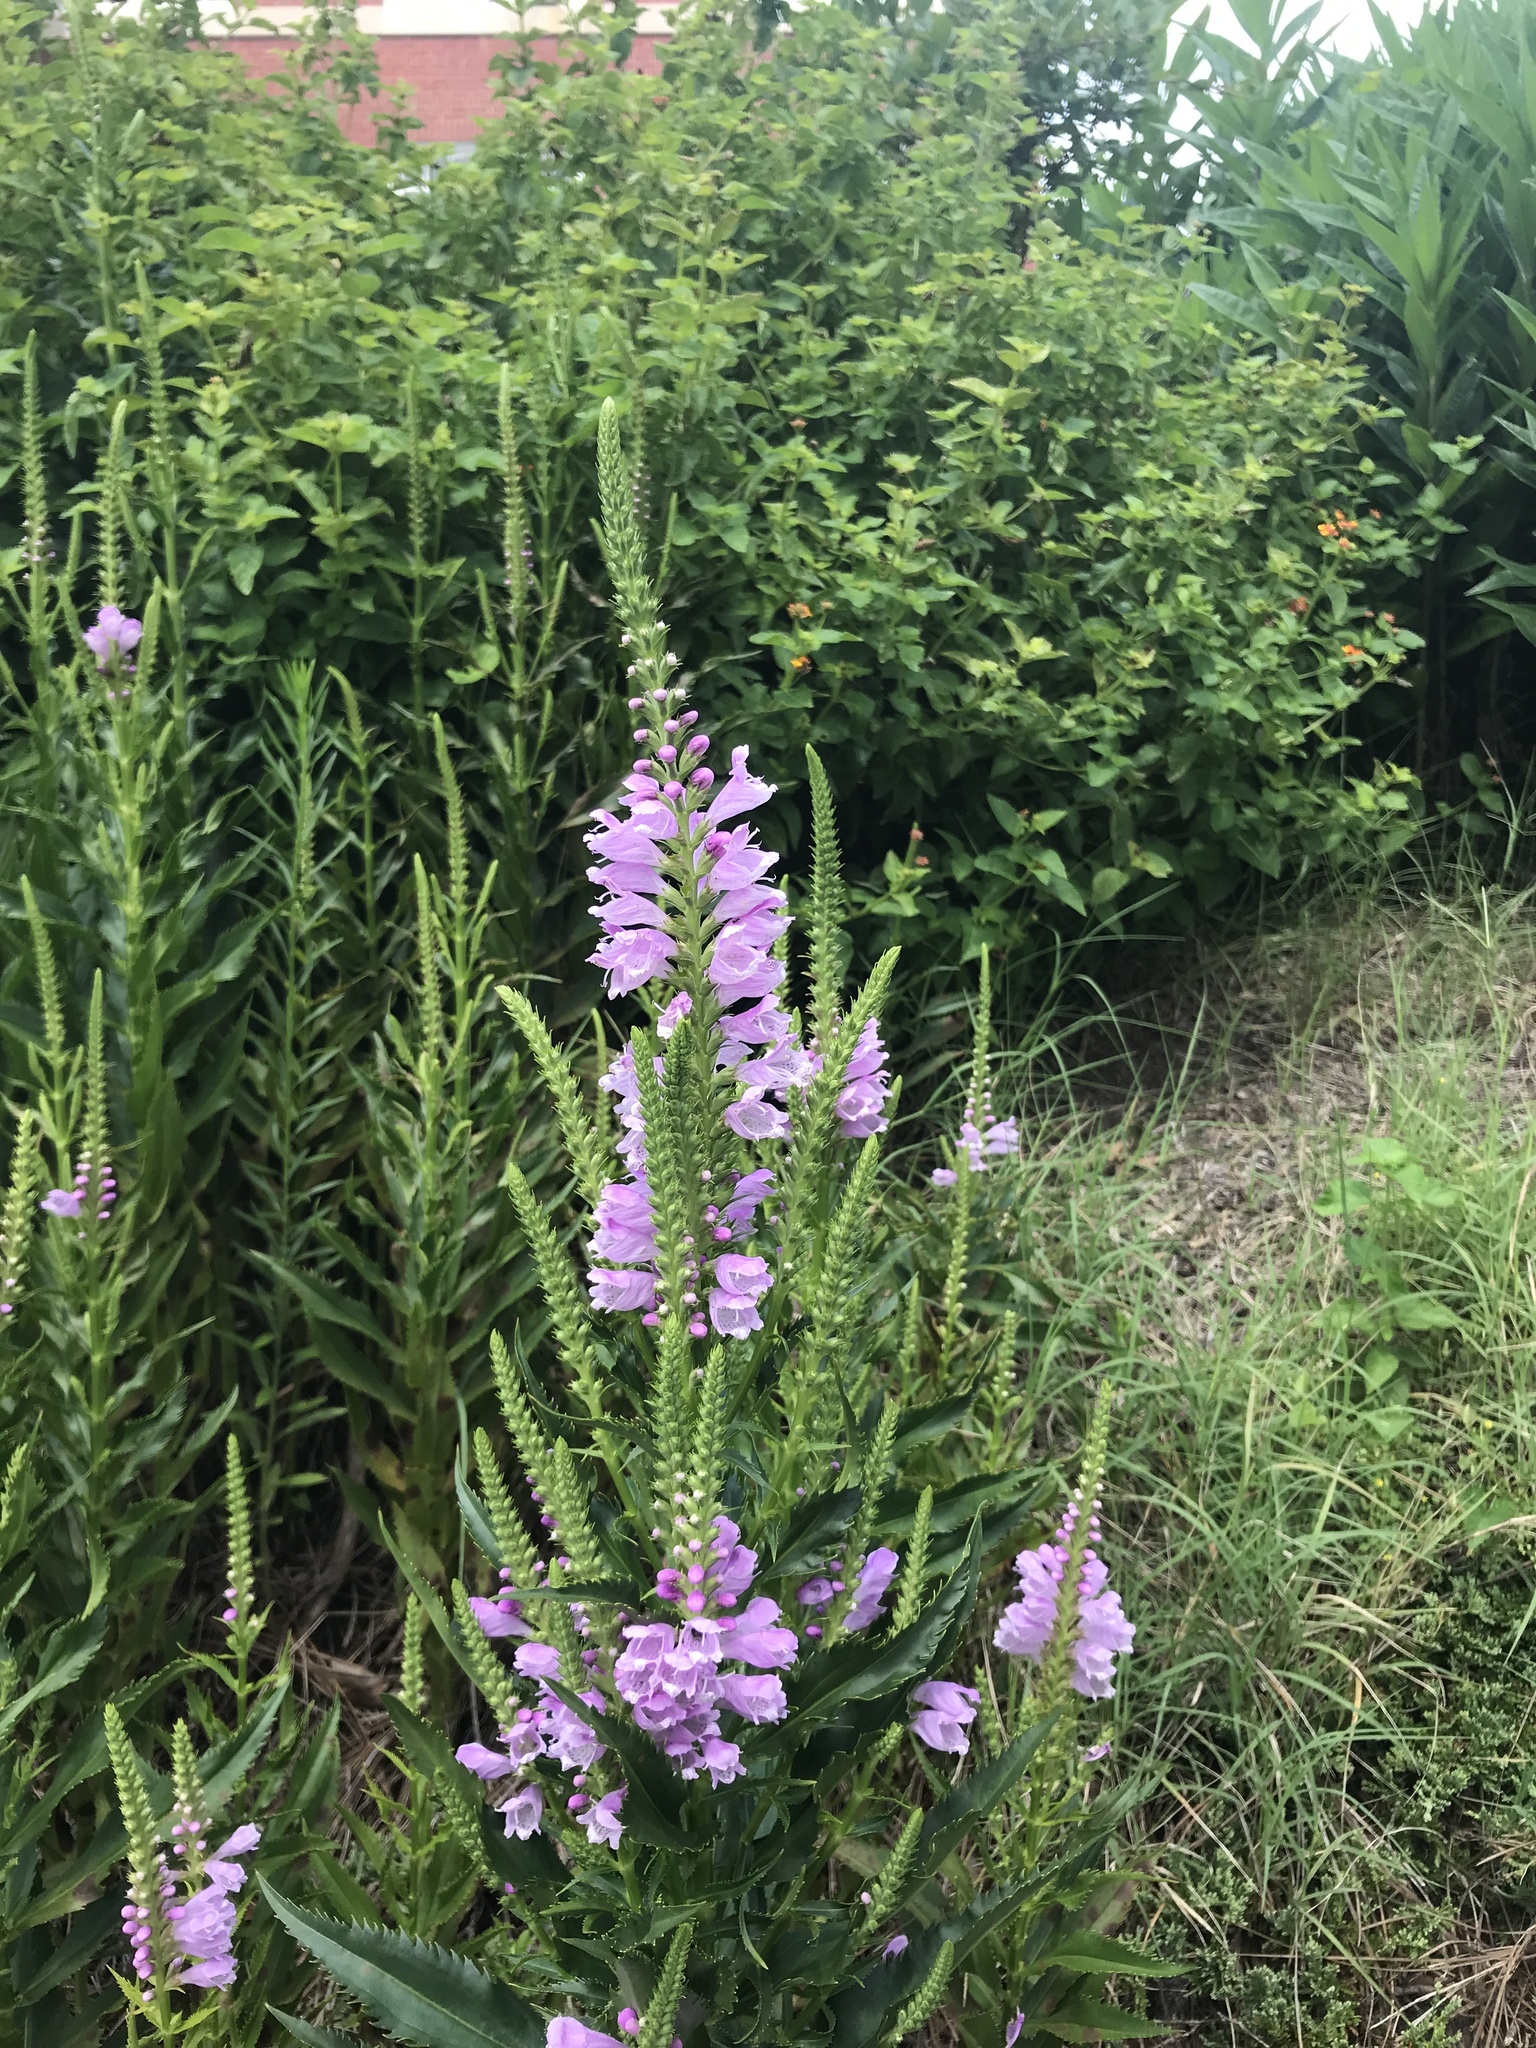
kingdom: Plantae
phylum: Tracheophyta
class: Magnoliopsida
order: Lamiales
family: Lamiaceae
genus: Physostegia
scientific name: Physostegia virginiana
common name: Obedient-plant
